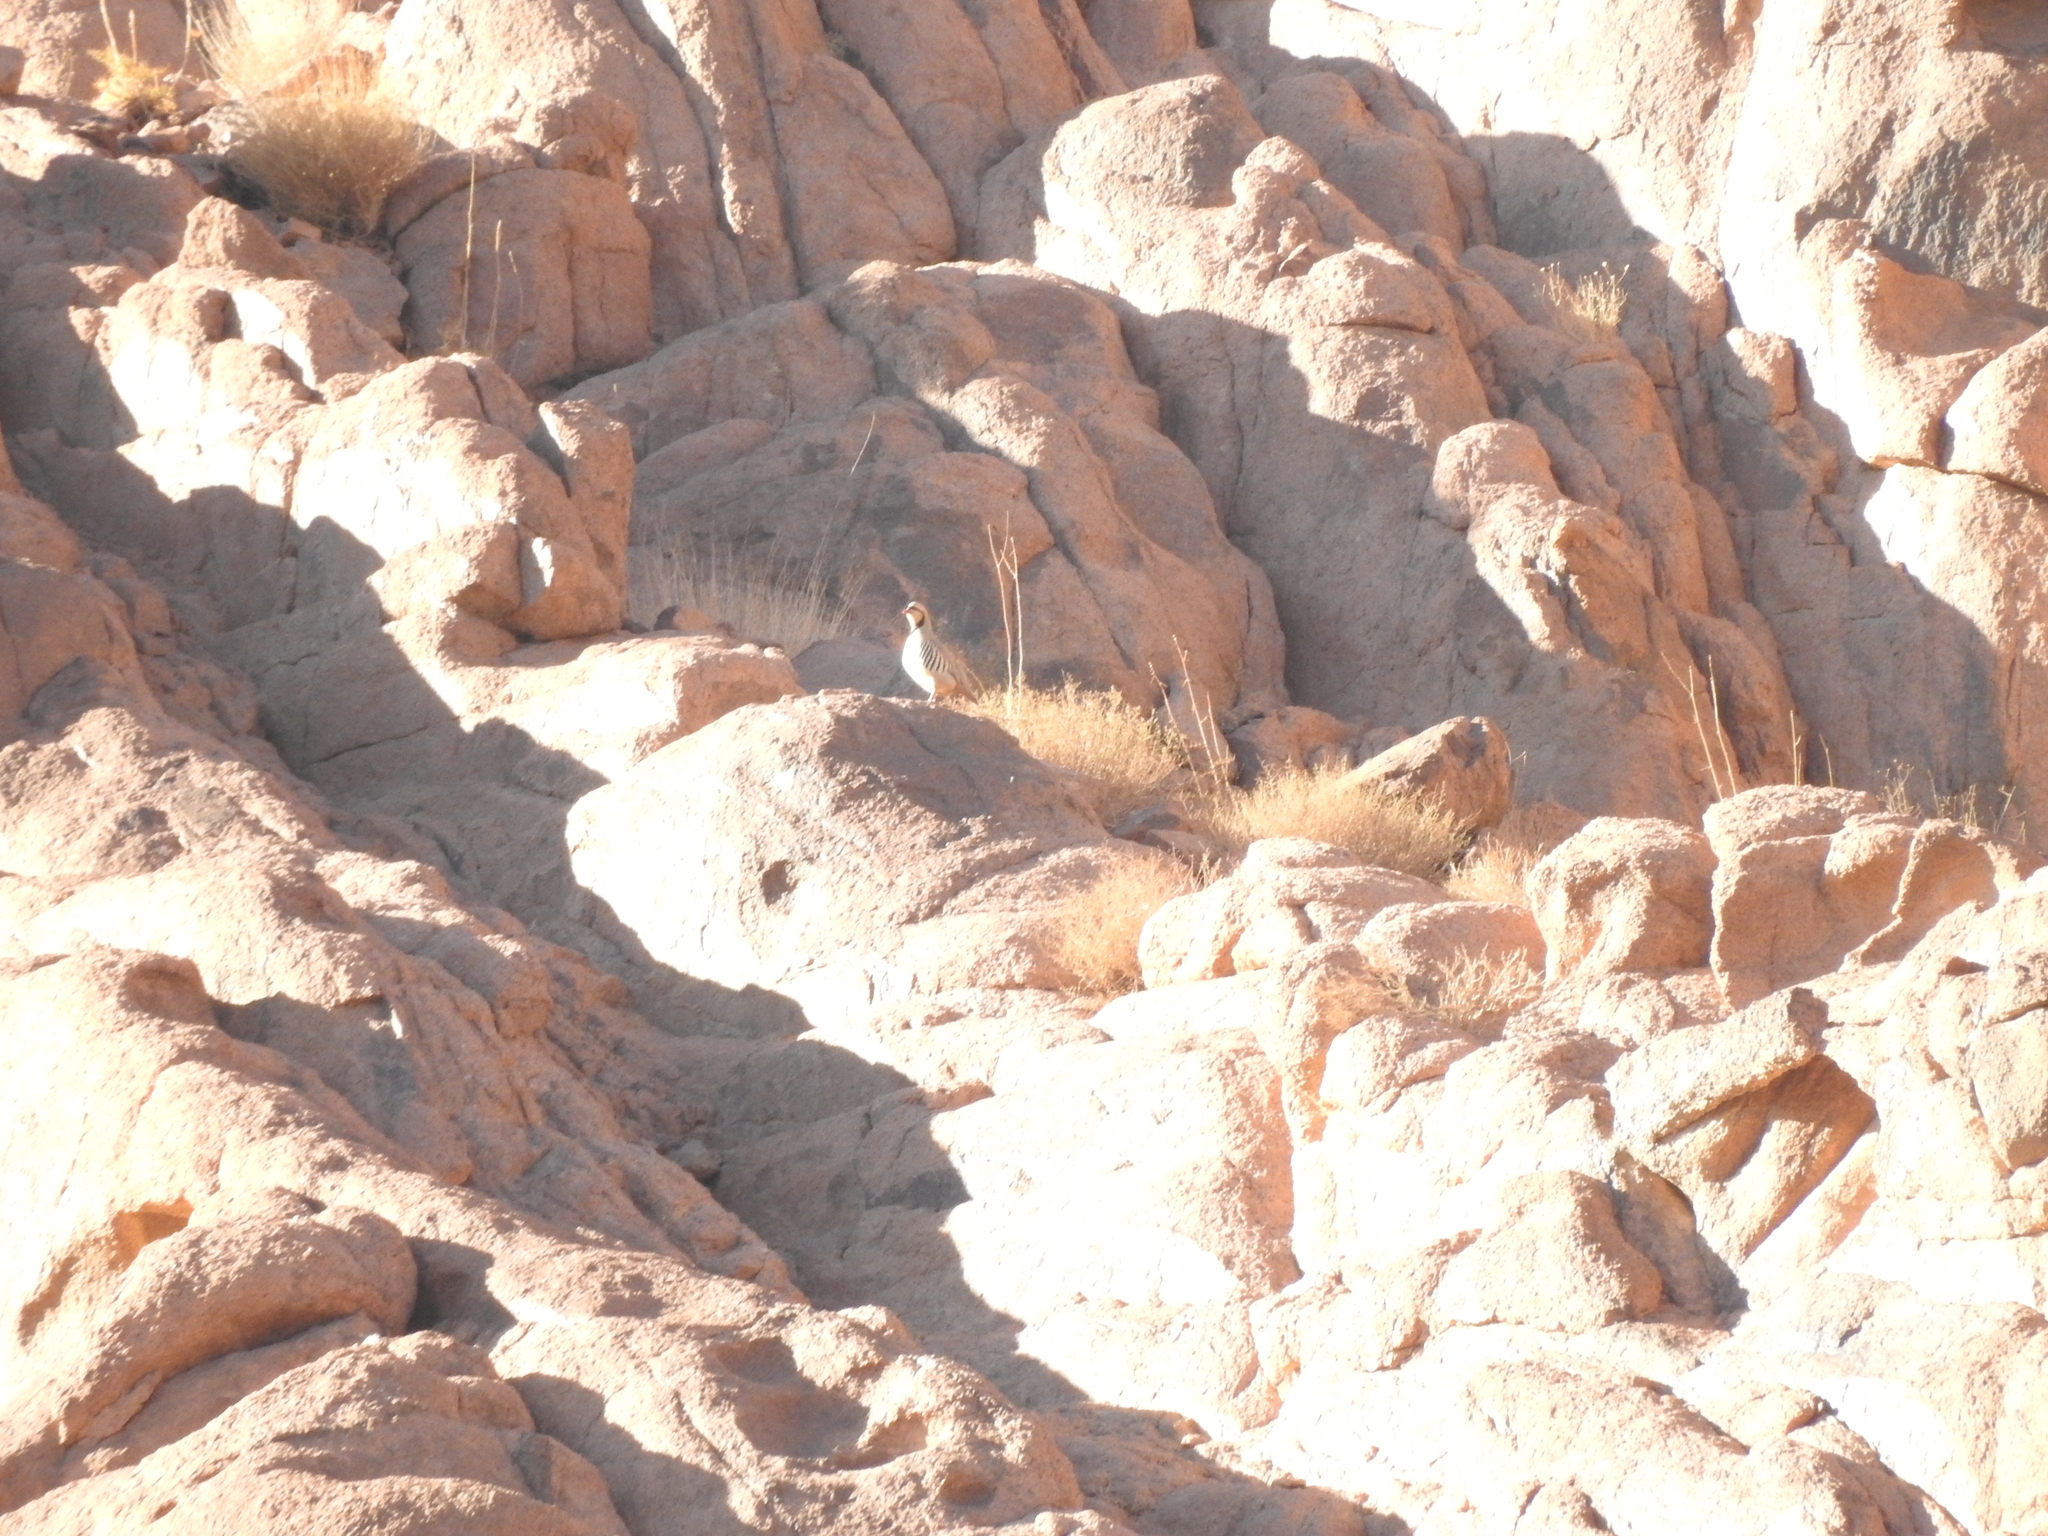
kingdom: Animalia
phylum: Chordata
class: Aves
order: Galliformes
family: Phasianidae
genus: Alectoris
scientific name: Alectoris chukar
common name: Chukar
